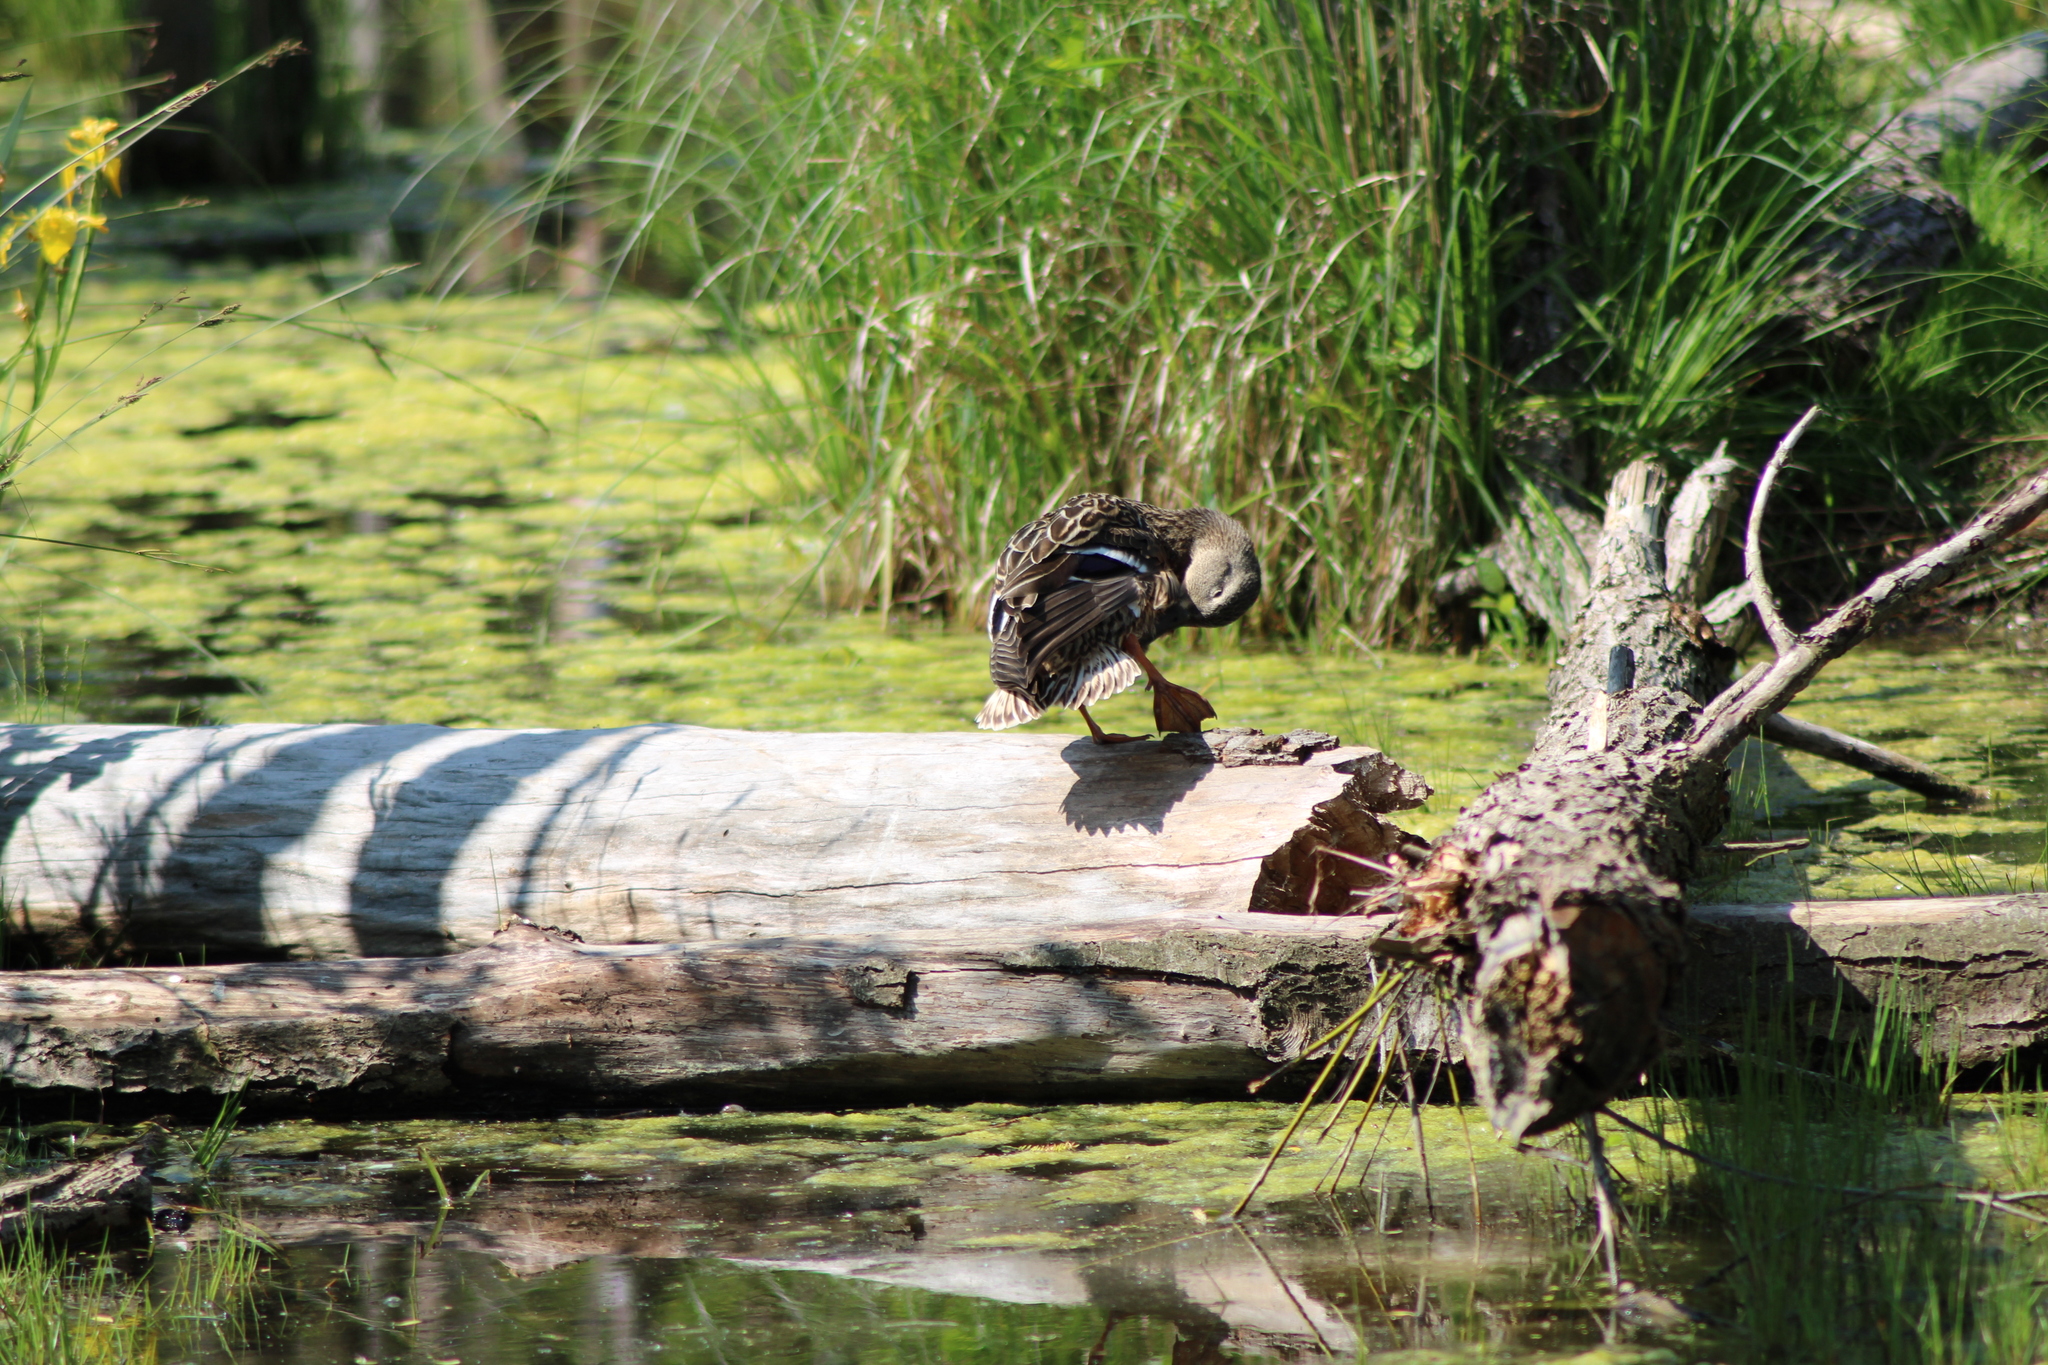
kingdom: Animalia
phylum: Chordata
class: Aves
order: Anseriformes
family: Anatidae
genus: Anas
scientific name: Anas platyrhynchos
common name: Mallard
